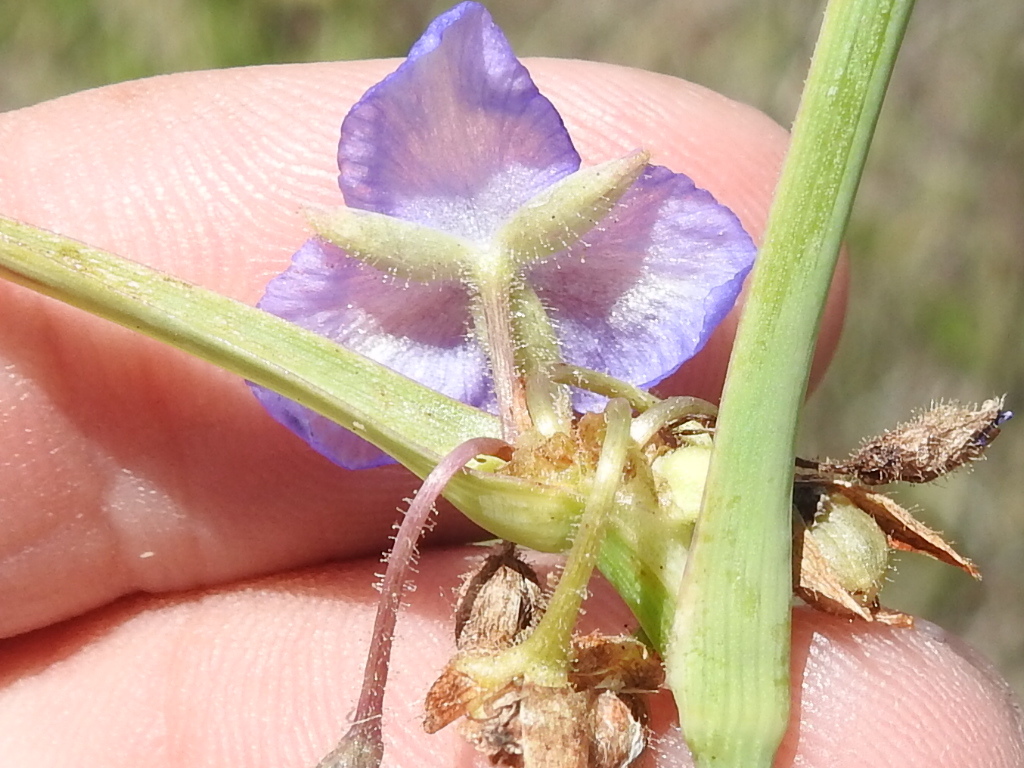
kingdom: Plantae
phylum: Tracheophyta
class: Liliopsida
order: Commelinales
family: Commelinaceae
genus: Tradescantia
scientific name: Tradescantia occidentalis
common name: Prairie spiderwort
